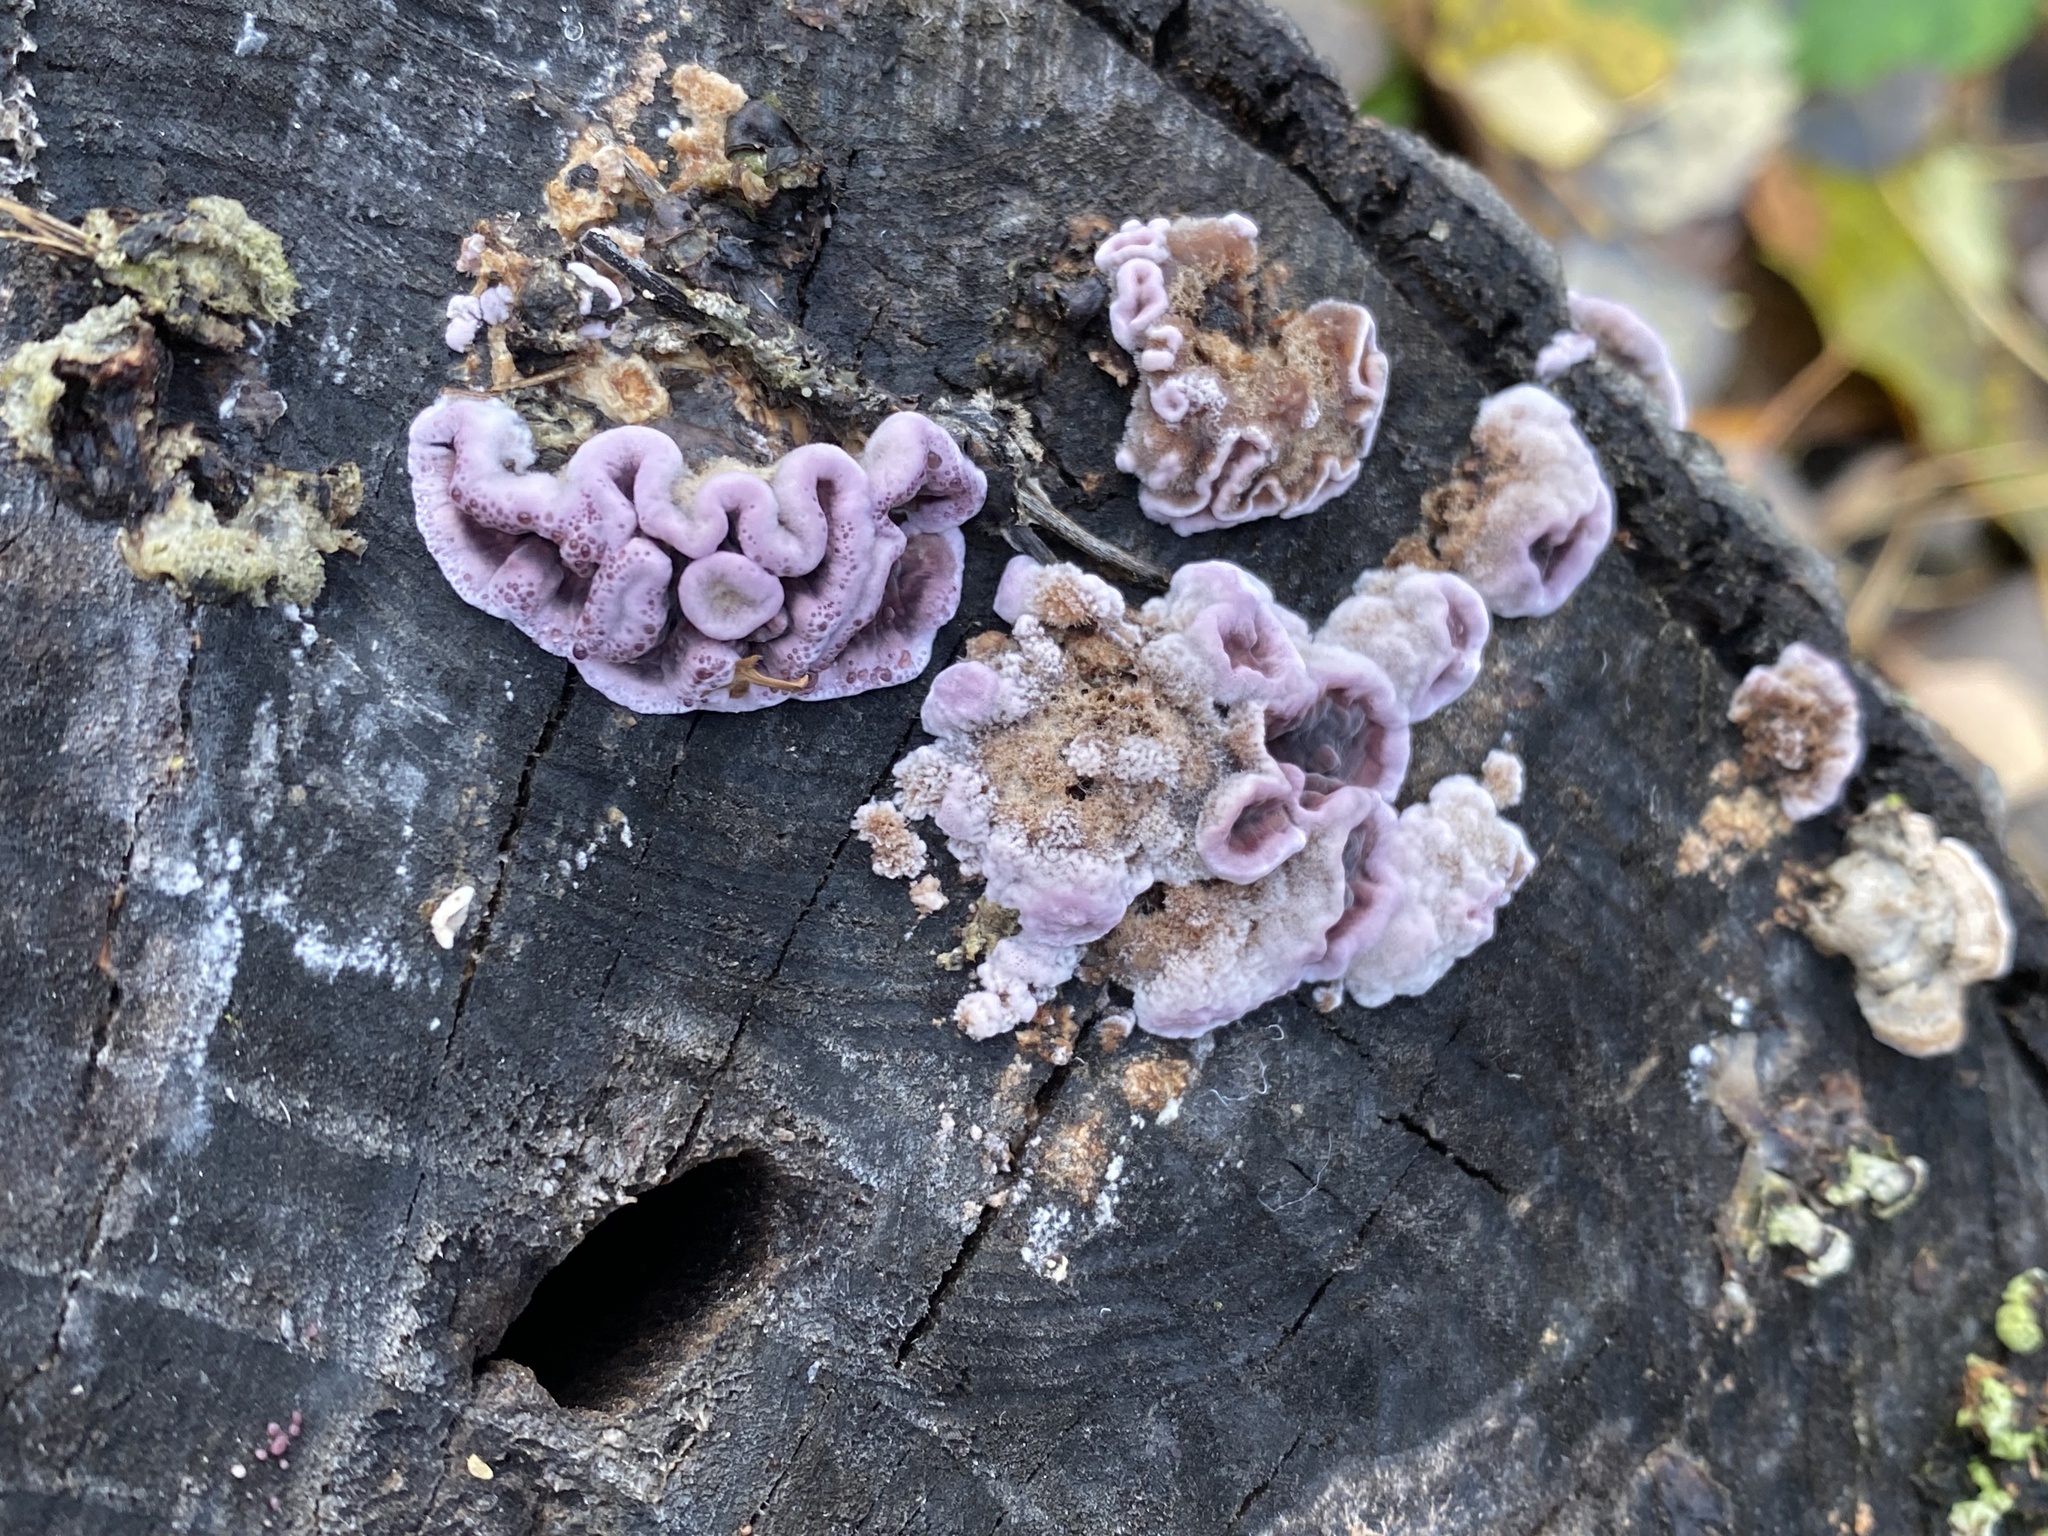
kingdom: Fungi
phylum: Basidiomycota
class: Agaricomycetes
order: Agaricales
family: Cyphellaceae
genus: Chondrostereum
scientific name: Chondrostereum purpureum
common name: Silver leaf disease
